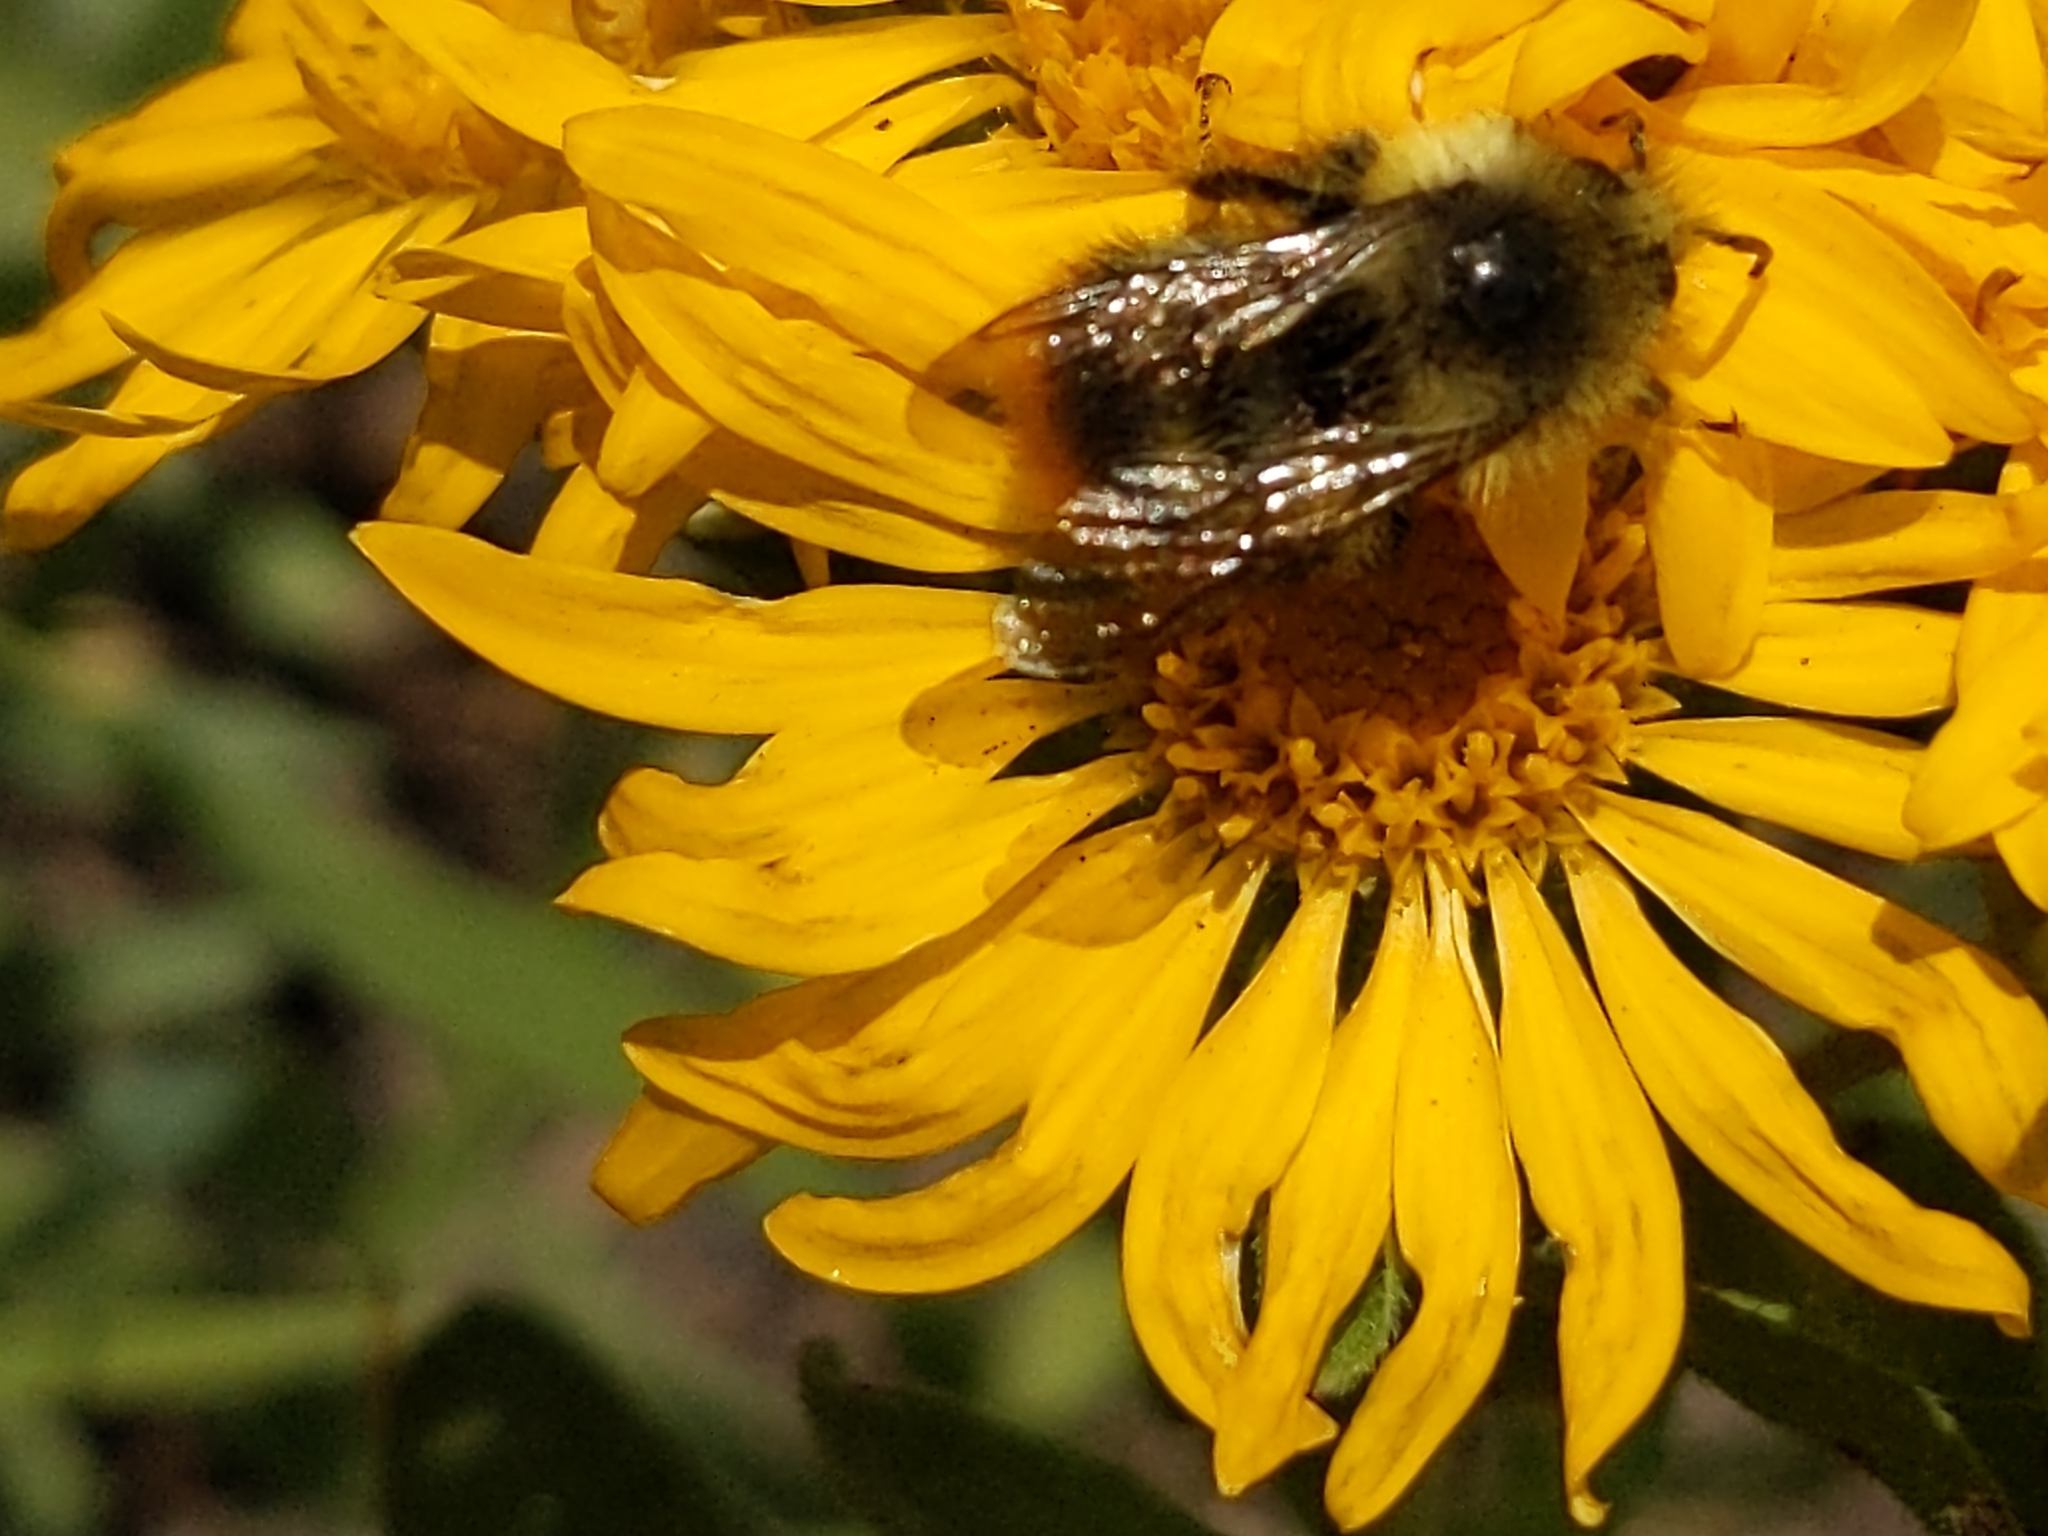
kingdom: Animalia
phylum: Arthropoda
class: Insecta
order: Hymenoptera
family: Apidae
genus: Bombus
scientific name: Bombus mixtus
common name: Fuzzy-horned bumble bee
